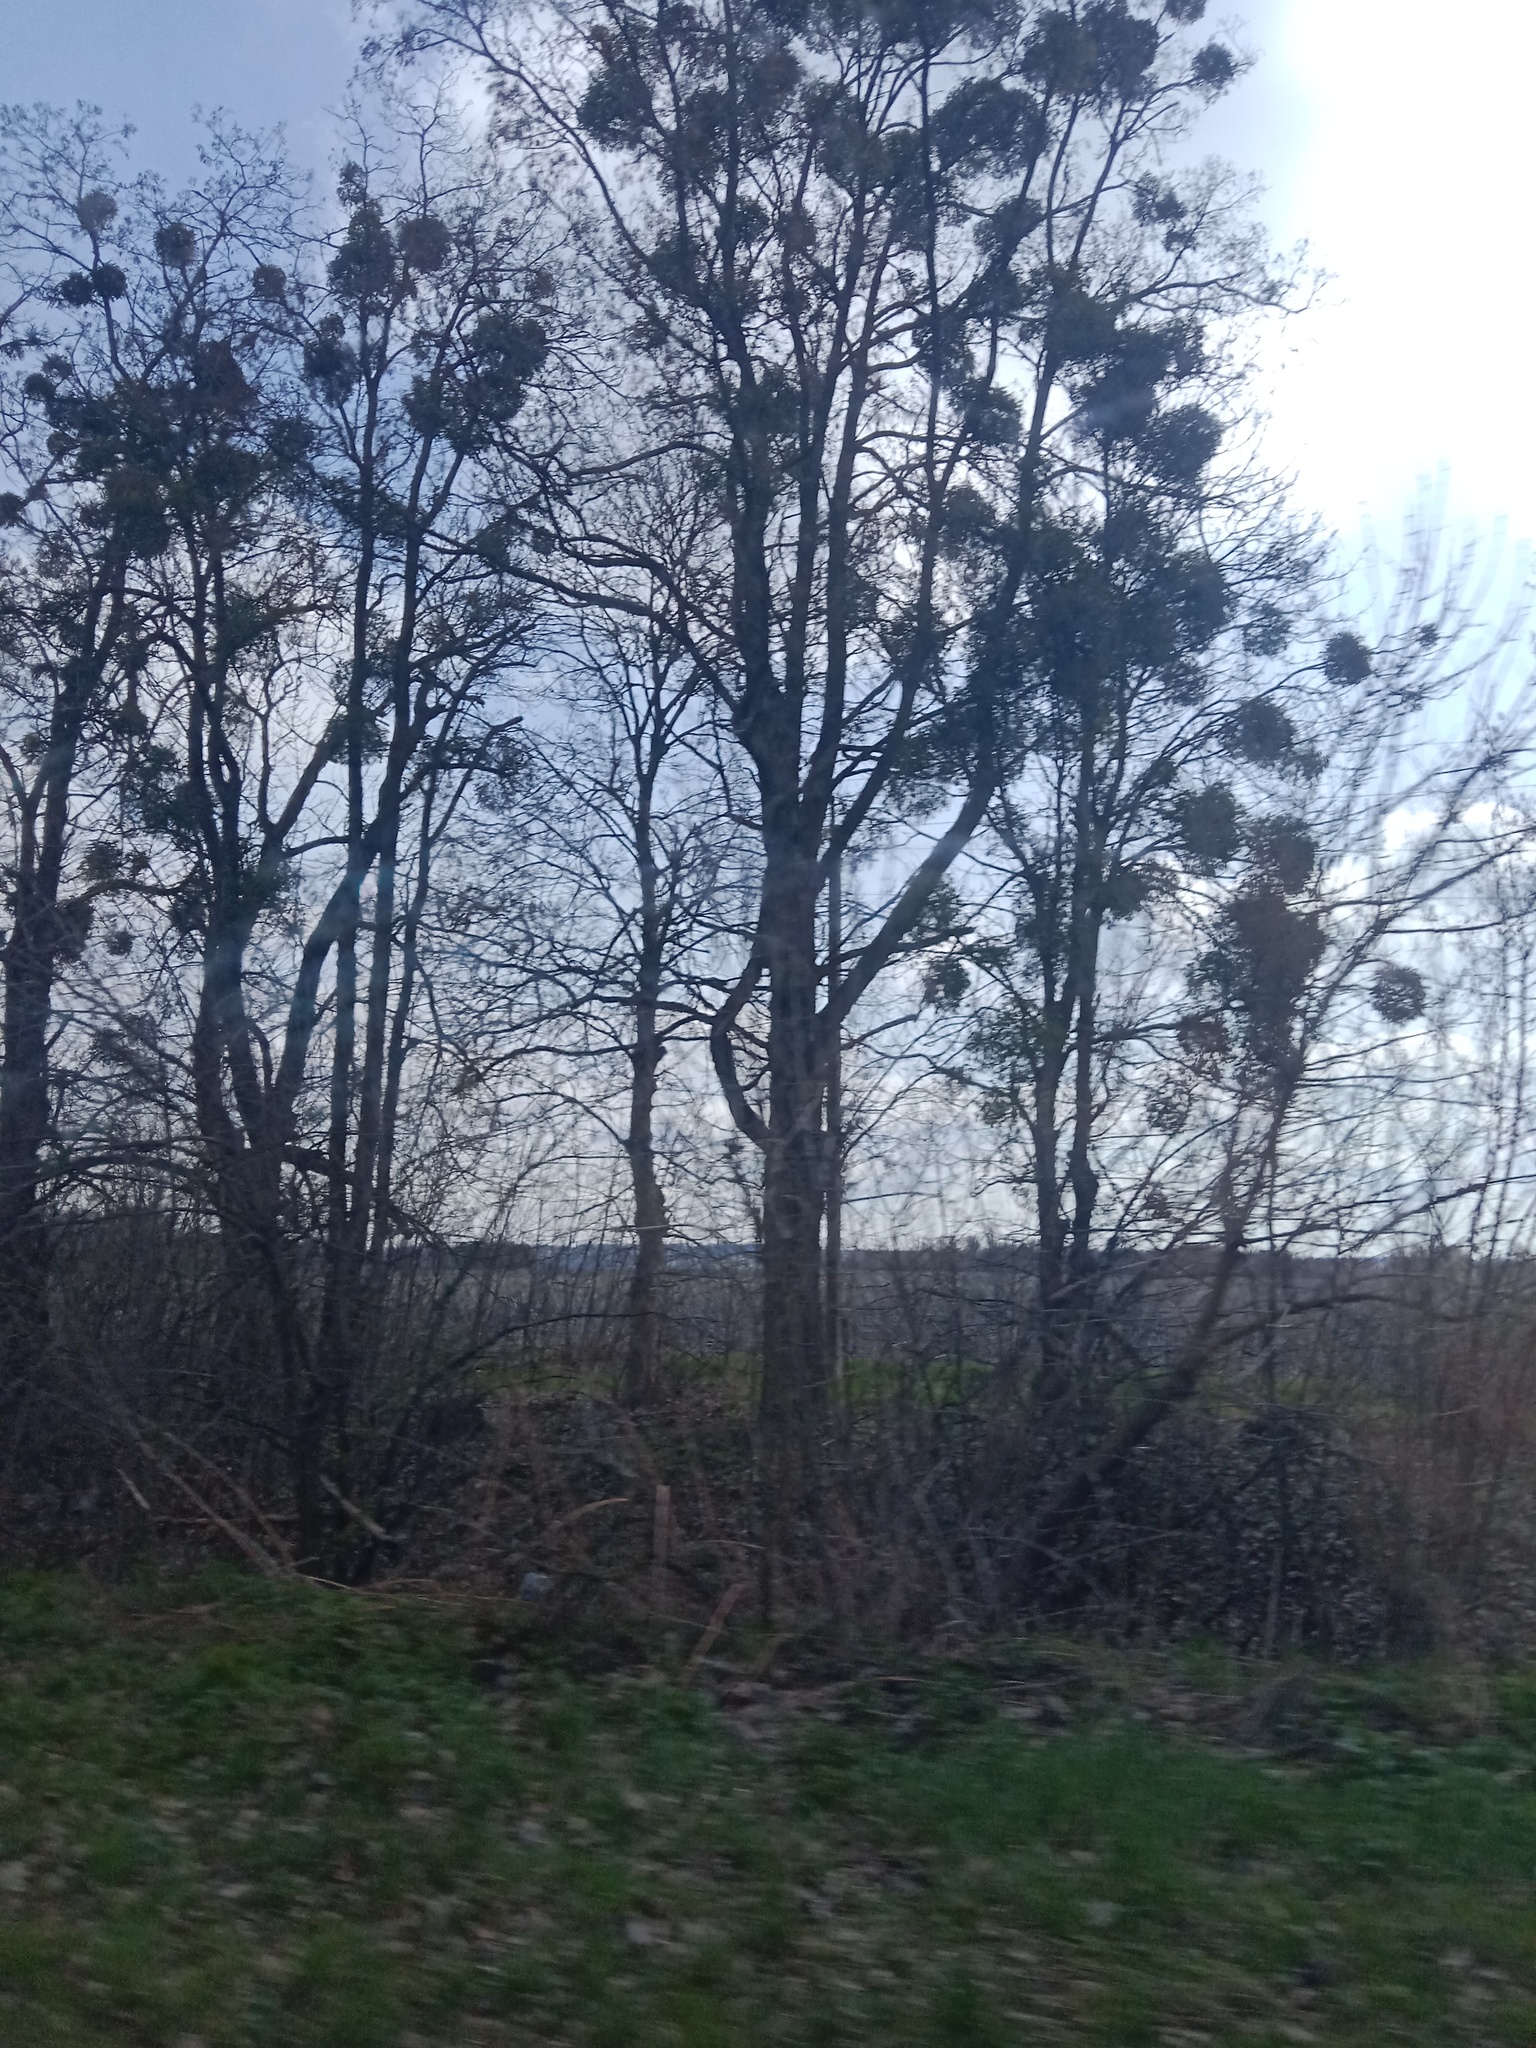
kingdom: Plantae
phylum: Tracheophyta
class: Magnoliopsida
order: Santalales
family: Viscaceae
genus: Viscum
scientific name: Viscum album
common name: Mistletoe
